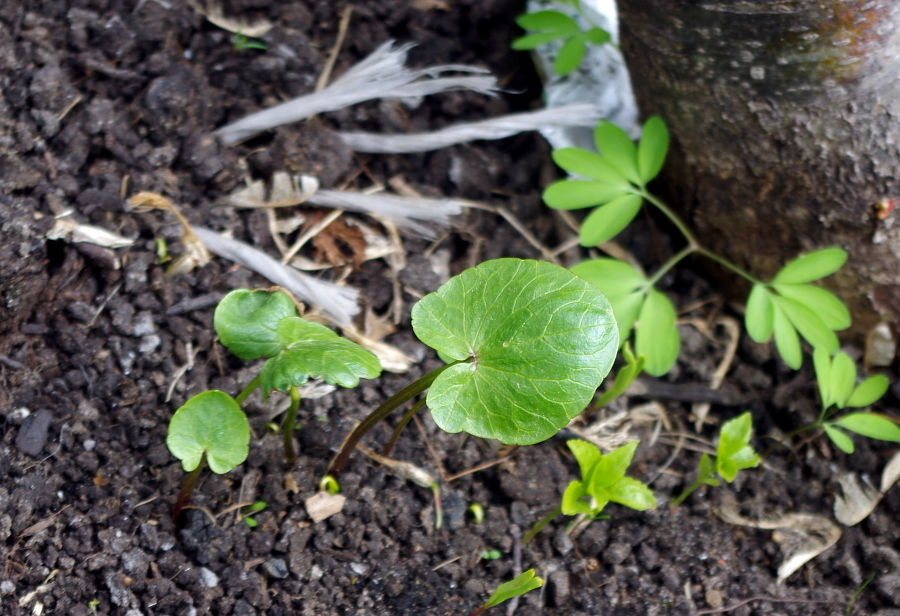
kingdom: Plantae
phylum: Tracheophyta
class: Magnoliopsida
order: Ranunculales
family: Ranunculaceae
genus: Ficaria
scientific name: Ficaria verna
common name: Lesser celandine
